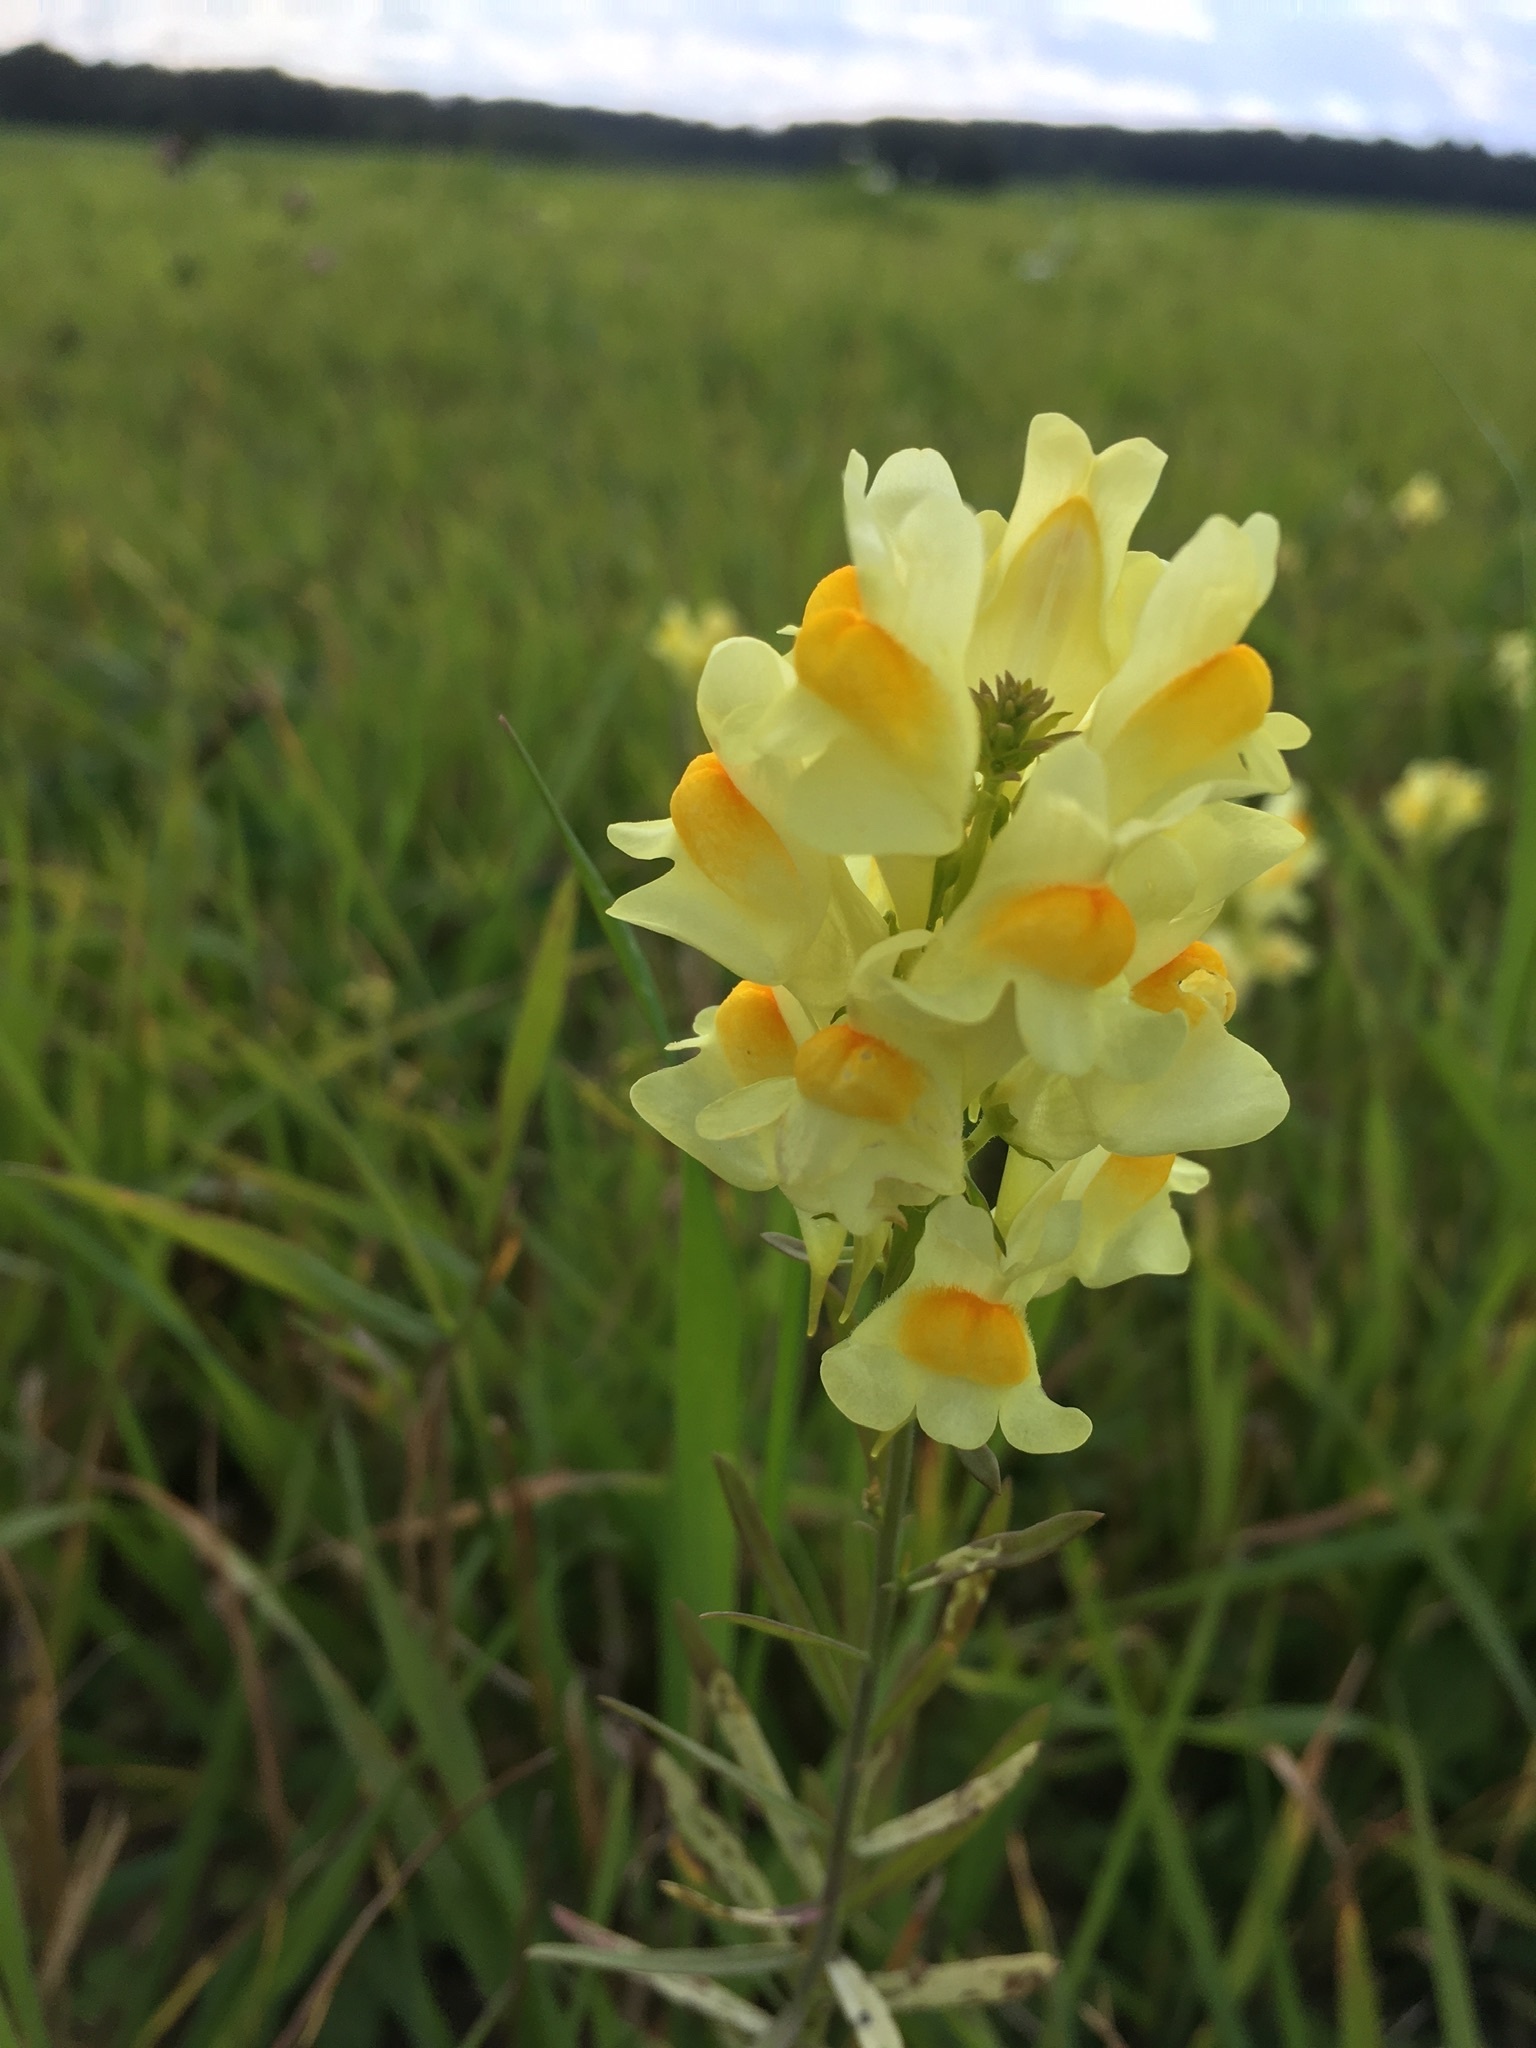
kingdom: Plantae
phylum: Tracheophyta
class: Magnoliopsida
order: Lamiales
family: Plantaginaceae
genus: Linaria
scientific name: Linaria vulgaris
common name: Butter and eggs
